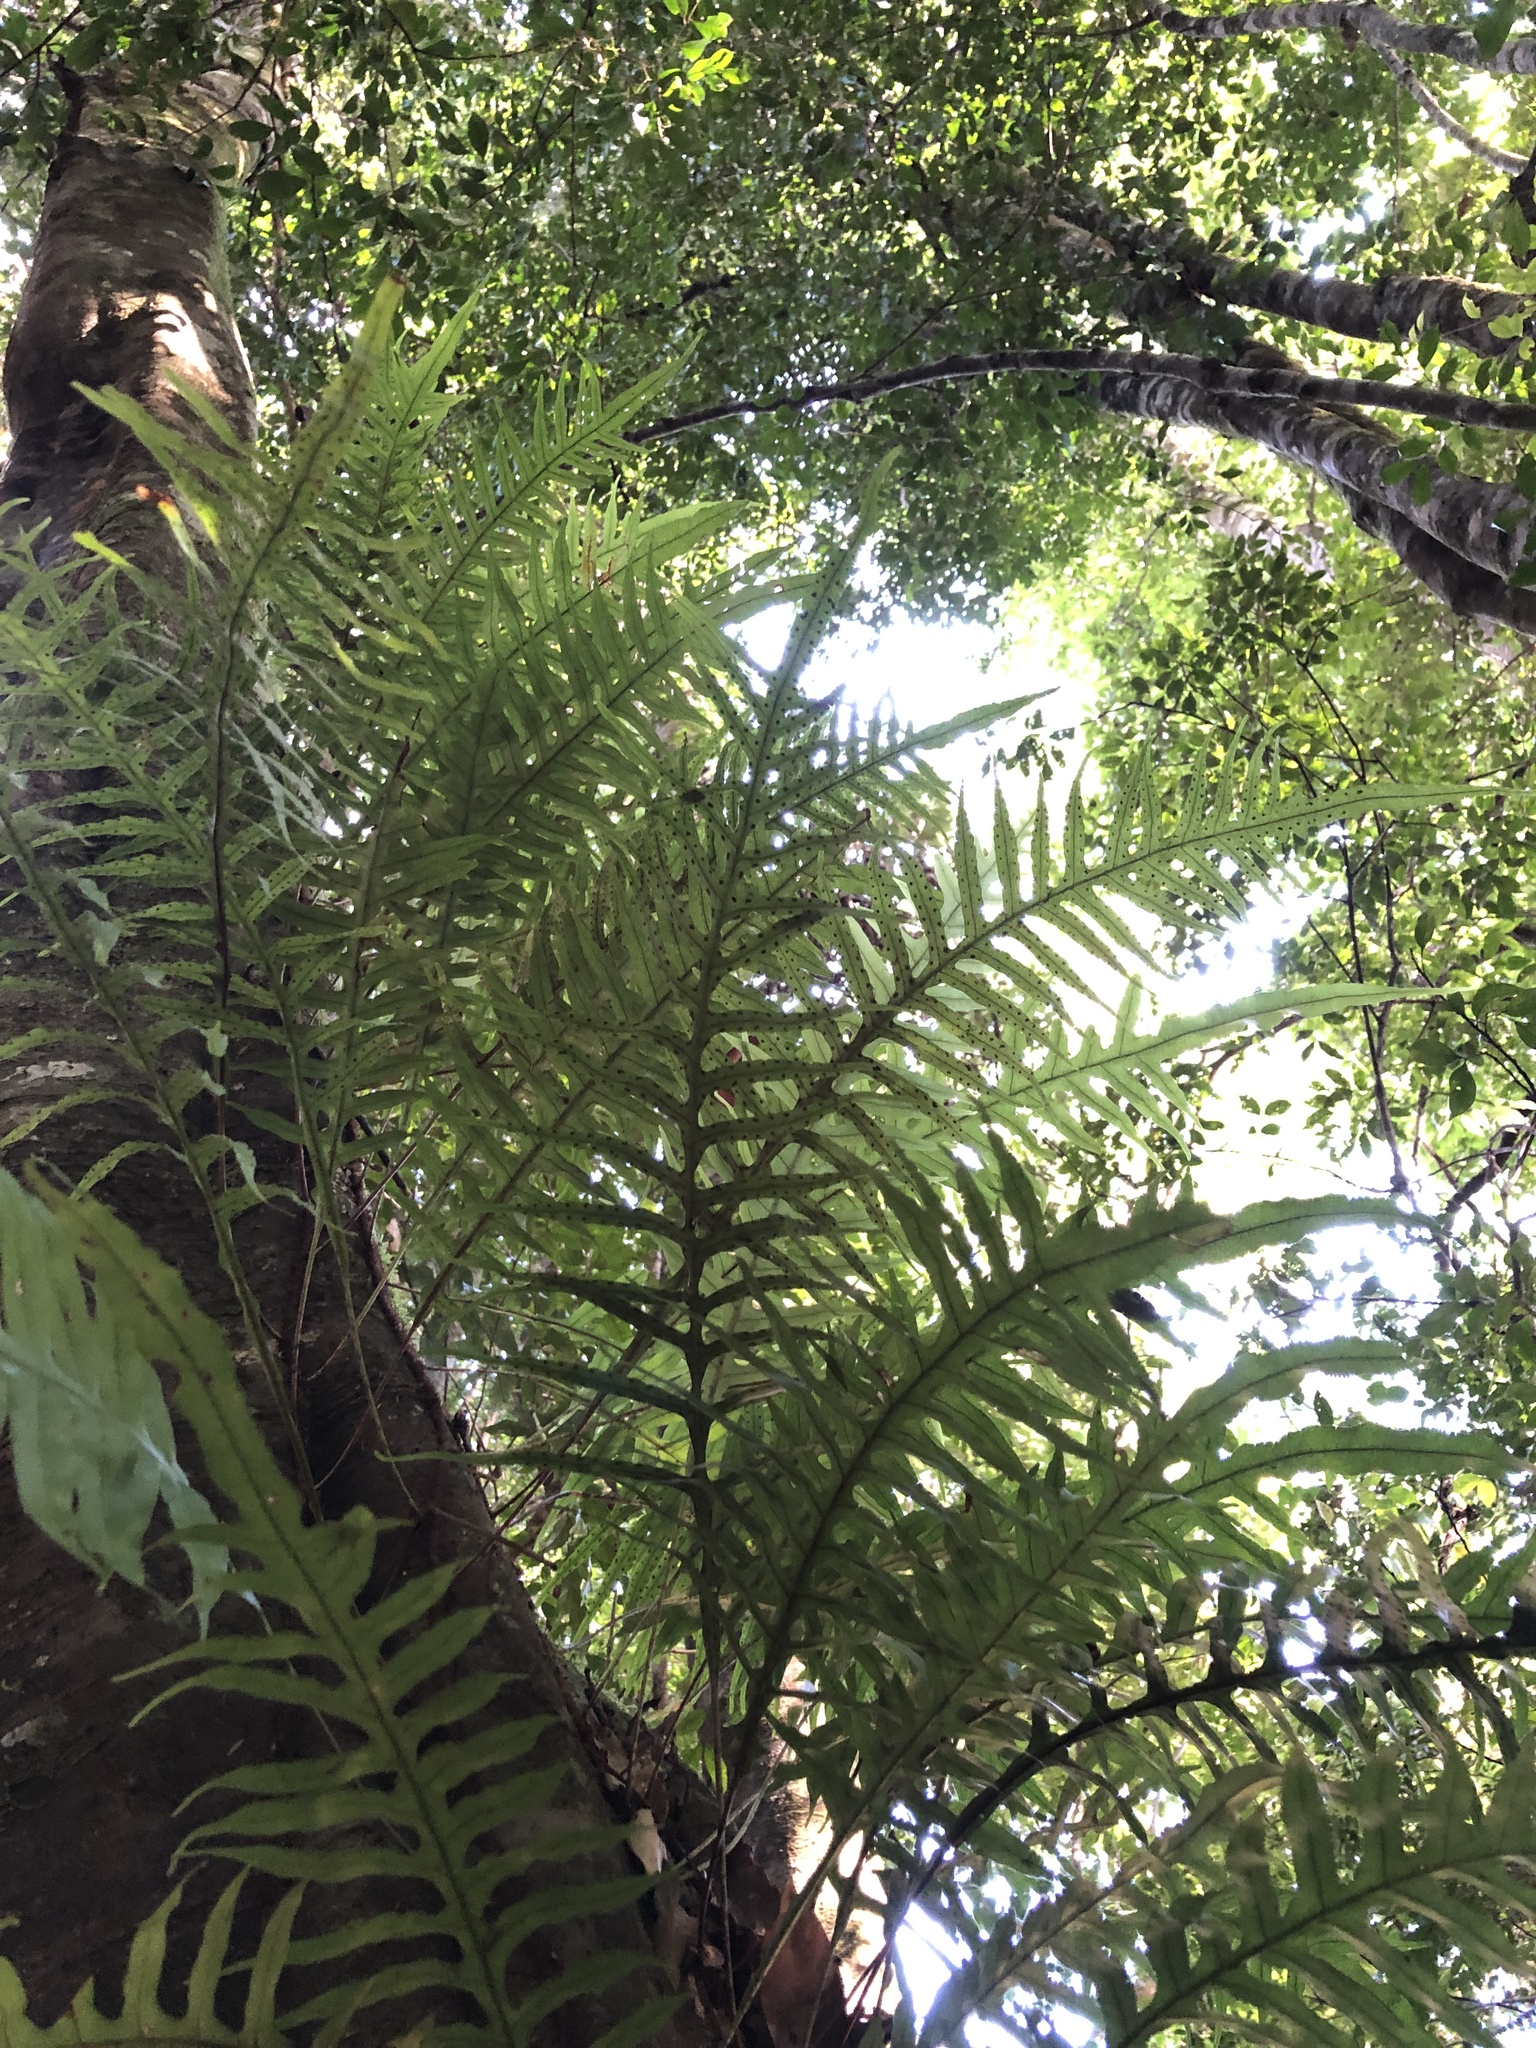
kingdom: Plantae
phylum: Tracheophyta
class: Polypodiopsida
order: Polypodiales
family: Polypodiaceae
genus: Lecanopteris
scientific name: Lecanopteris scandens
